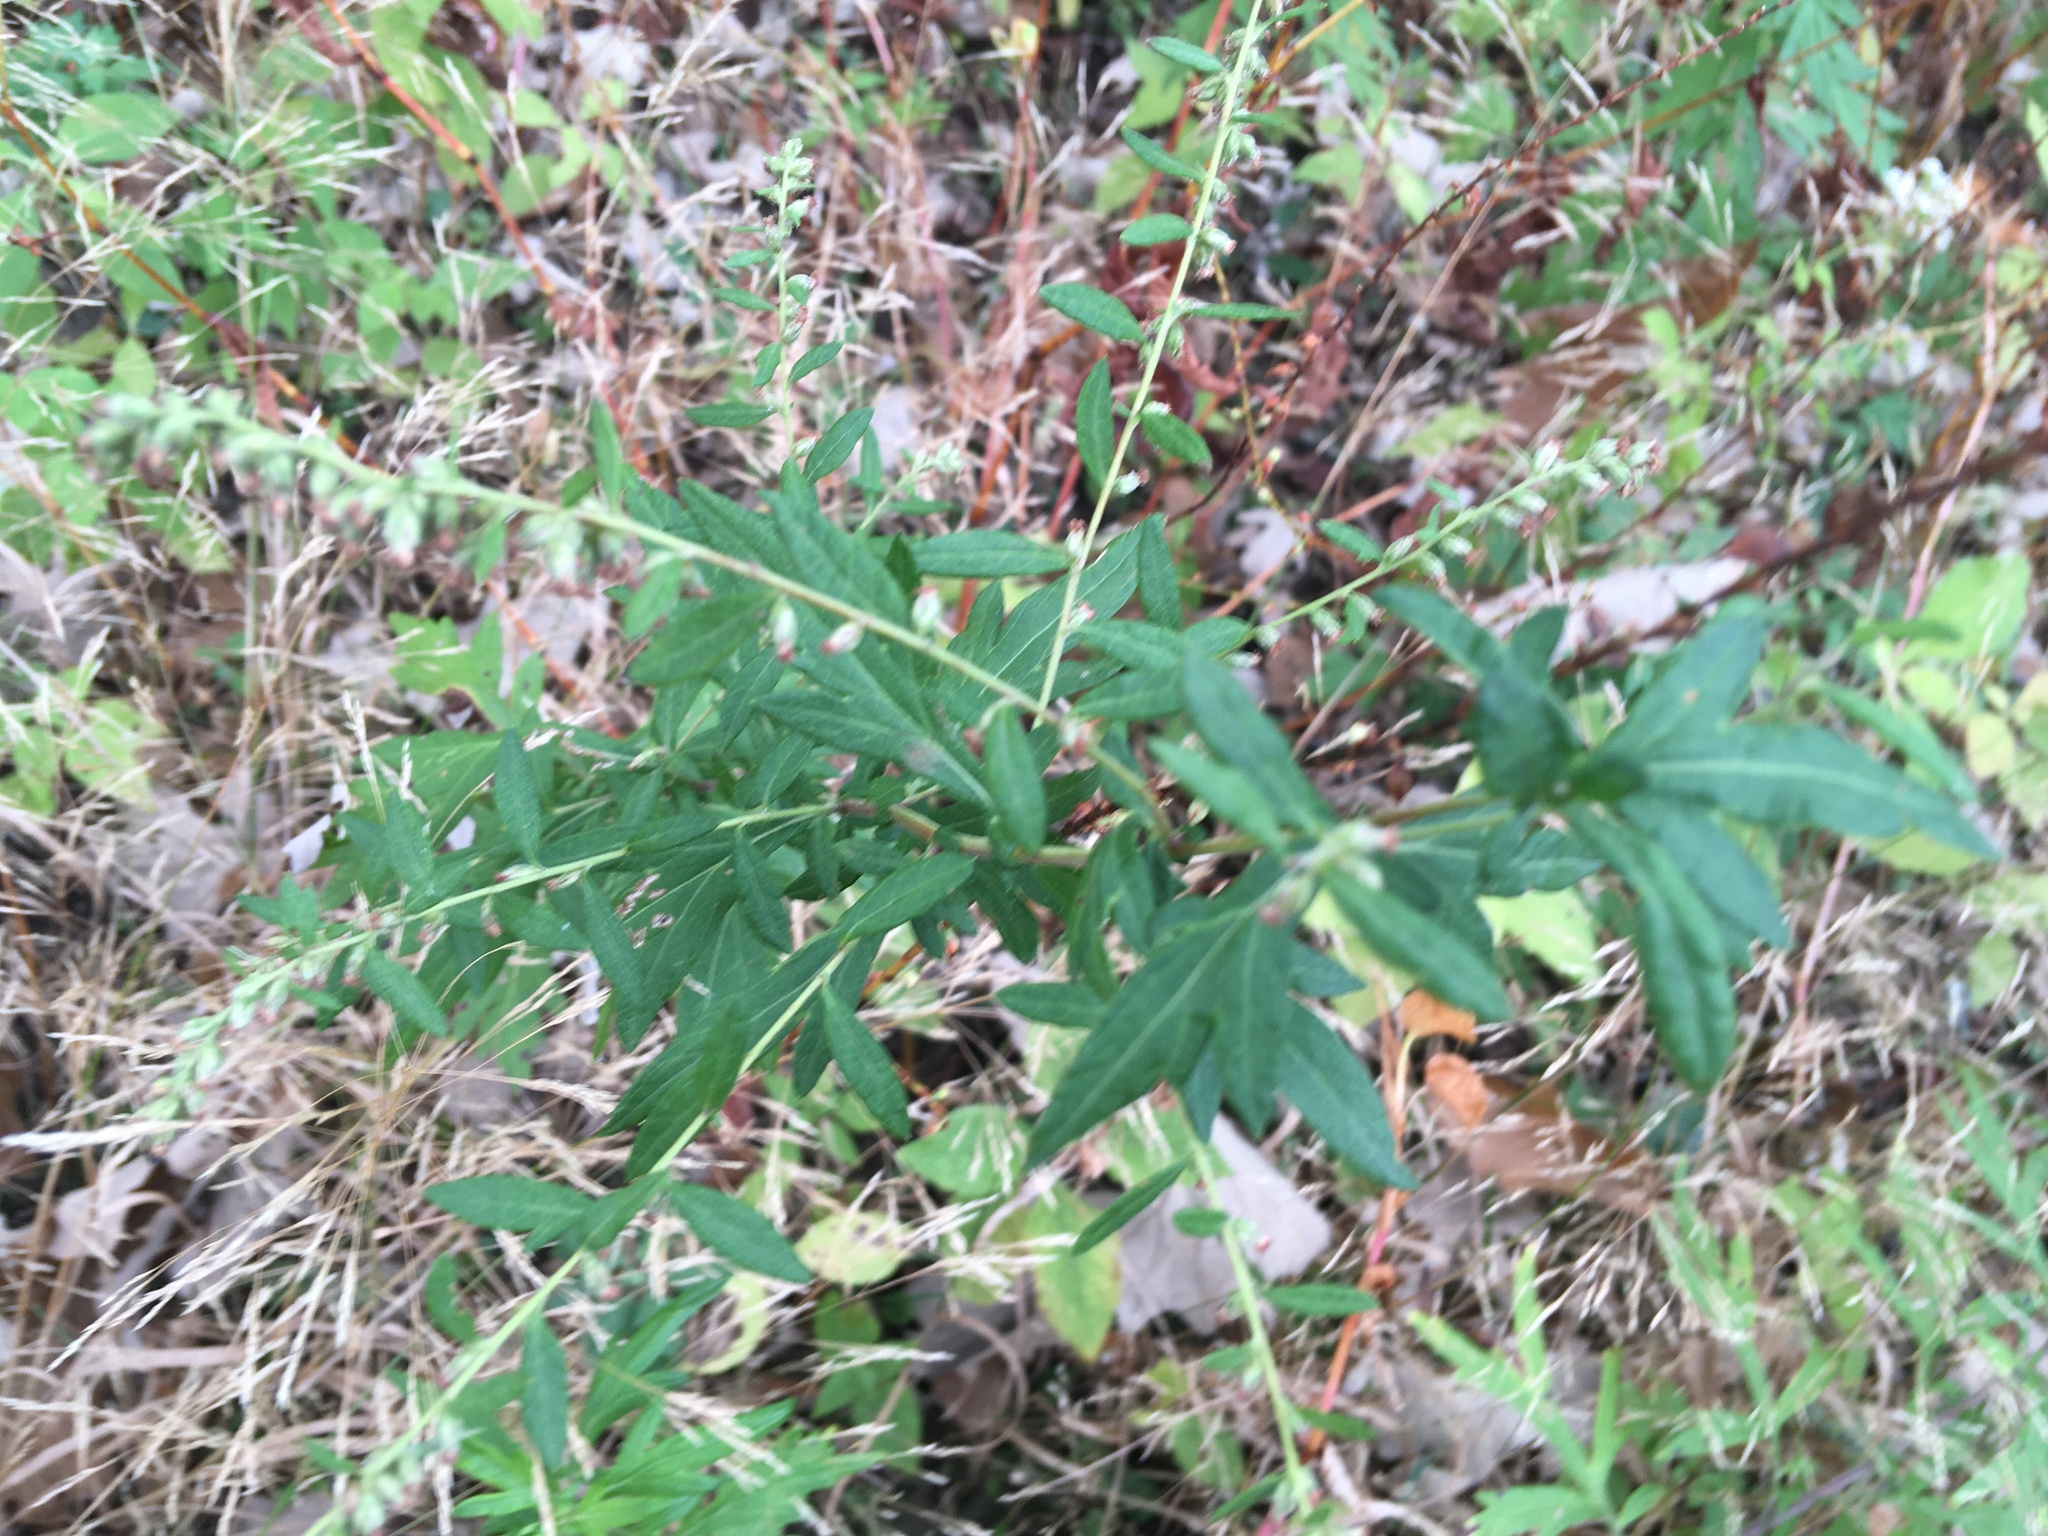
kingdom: Plantae
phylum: Tracheophyta
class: Magnoliopsida
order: Asterales
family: Asteraceae
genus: Artemisia
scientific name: Artemisia vulgaris
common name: Mugwort
